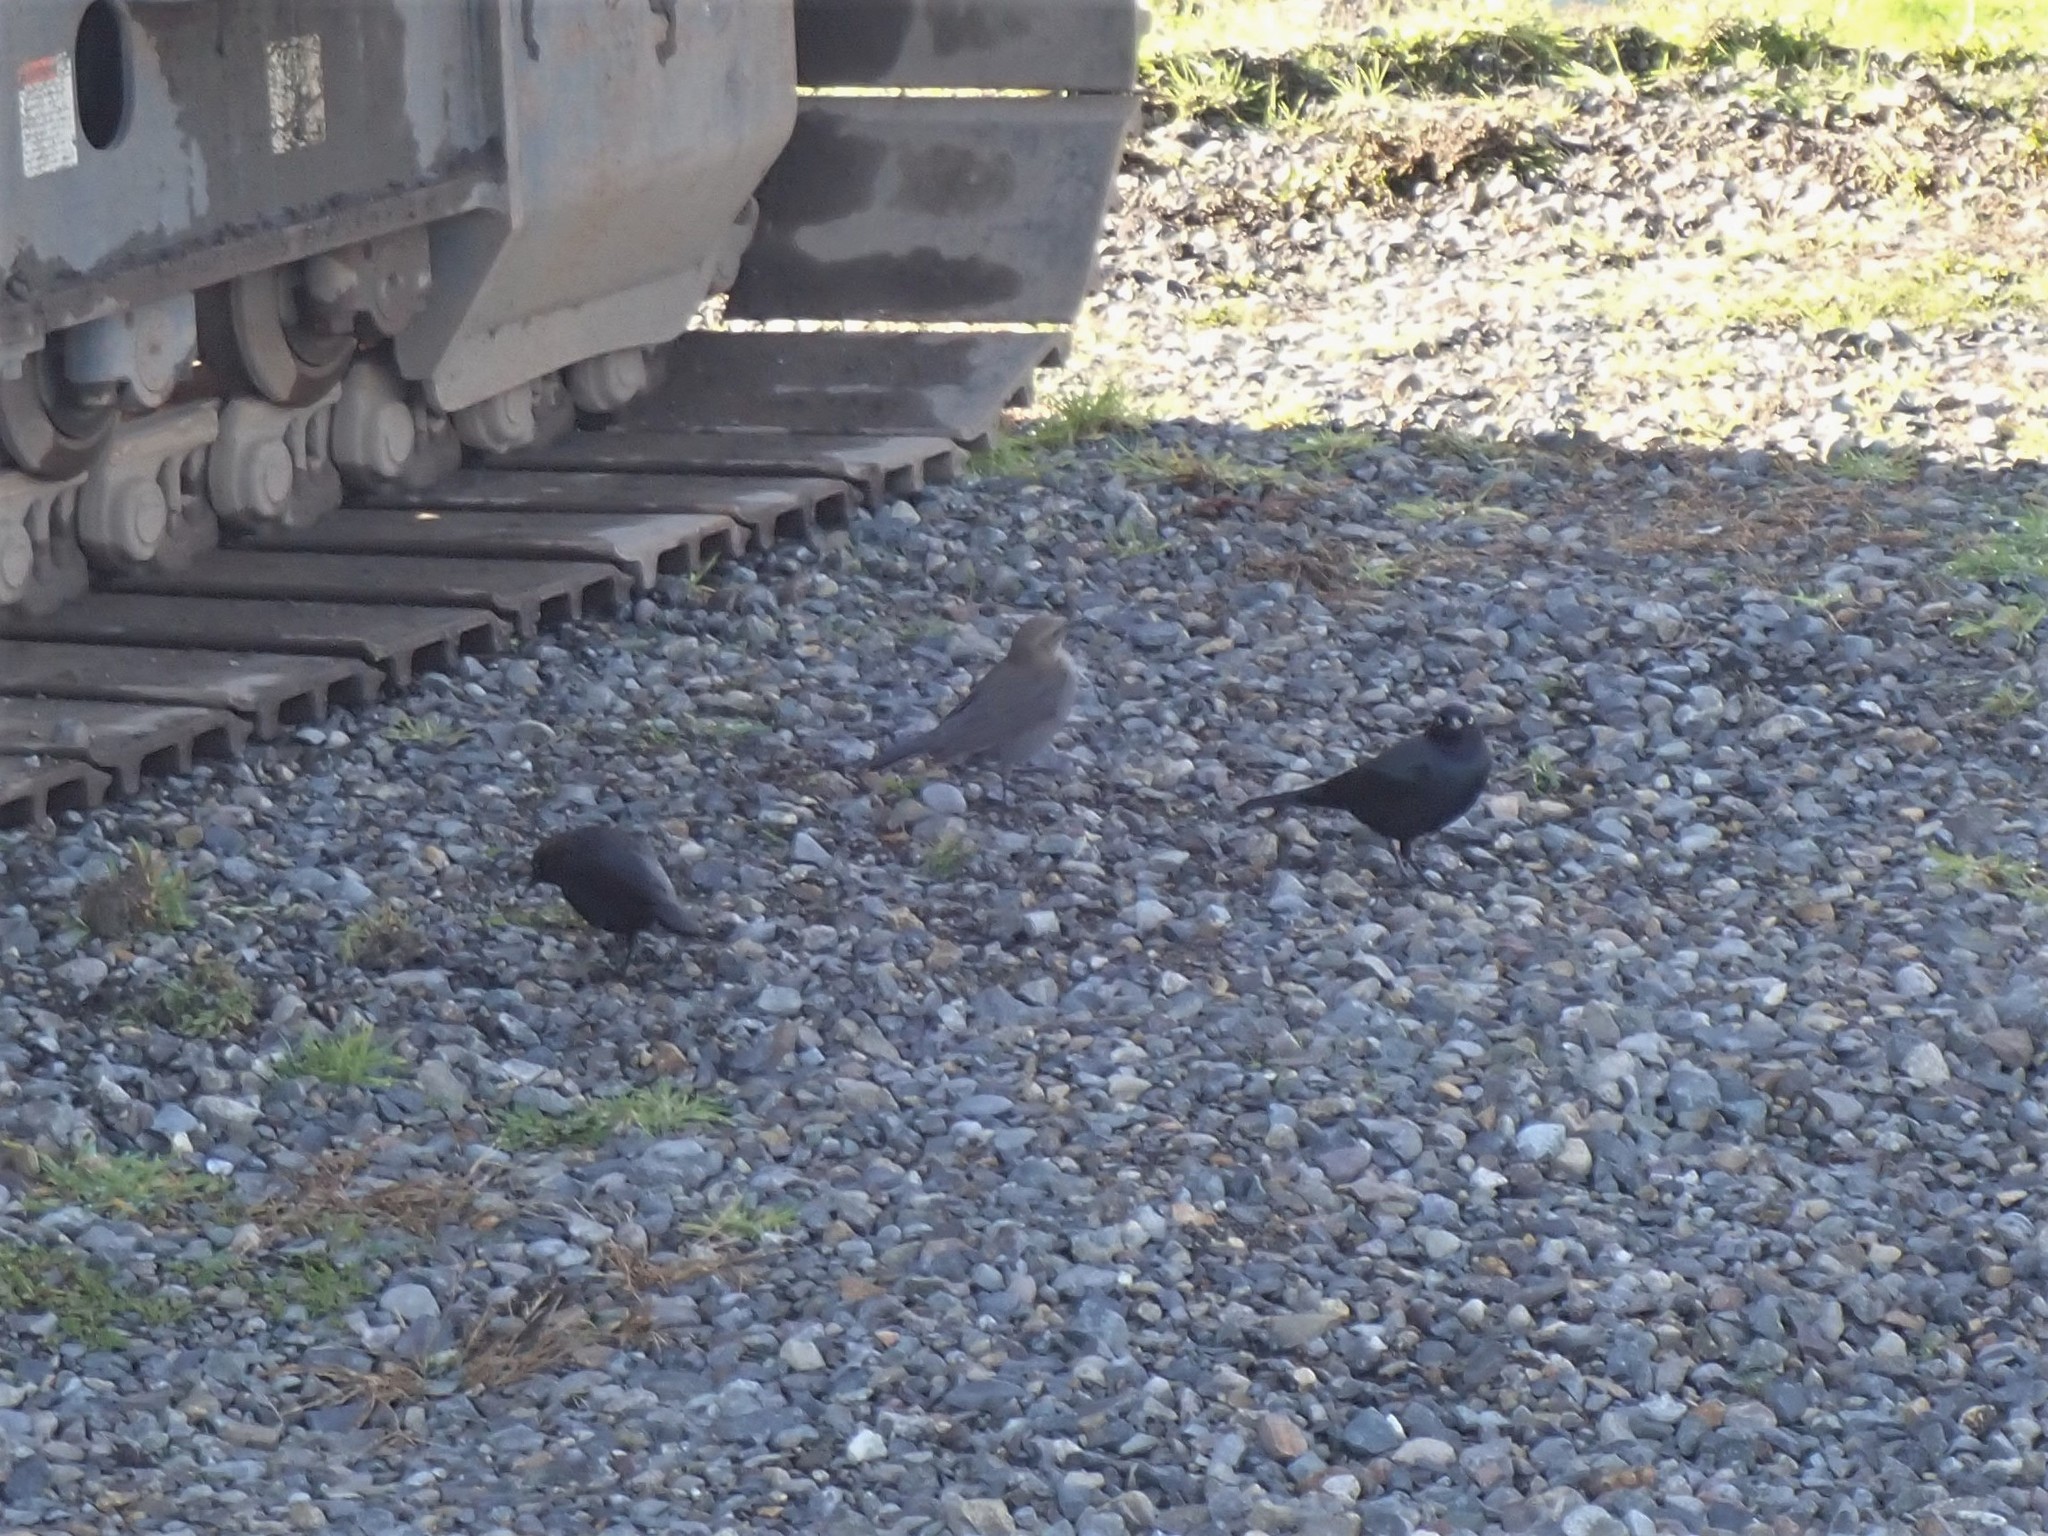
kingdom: Animalia
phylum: Chordata
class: Aves
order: Passeriformes
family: Icteridae
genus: Euphagus
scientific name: Euphagus cyanocephalus
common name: Brewer's blackbird
